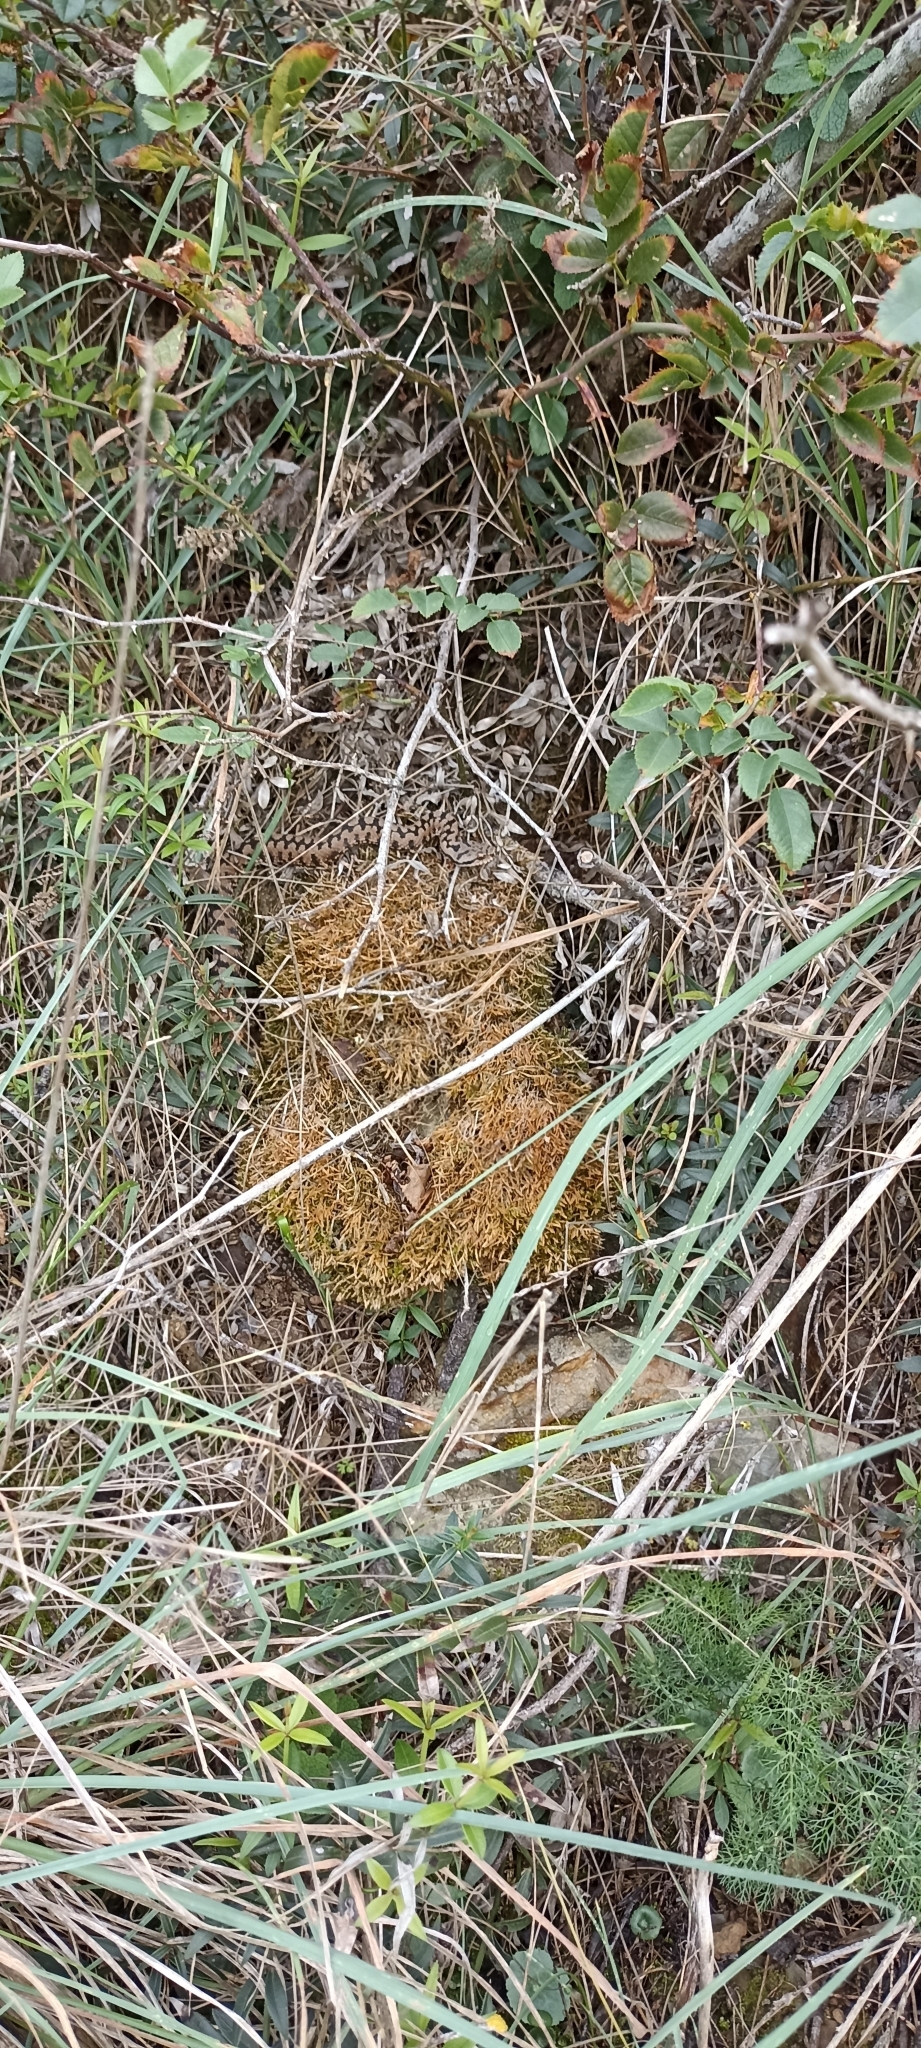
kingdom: Animalia
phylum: Chordata
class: Squamata
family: Viperidae
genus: Vipera
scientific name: Vipera aspis
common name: Asp viper
